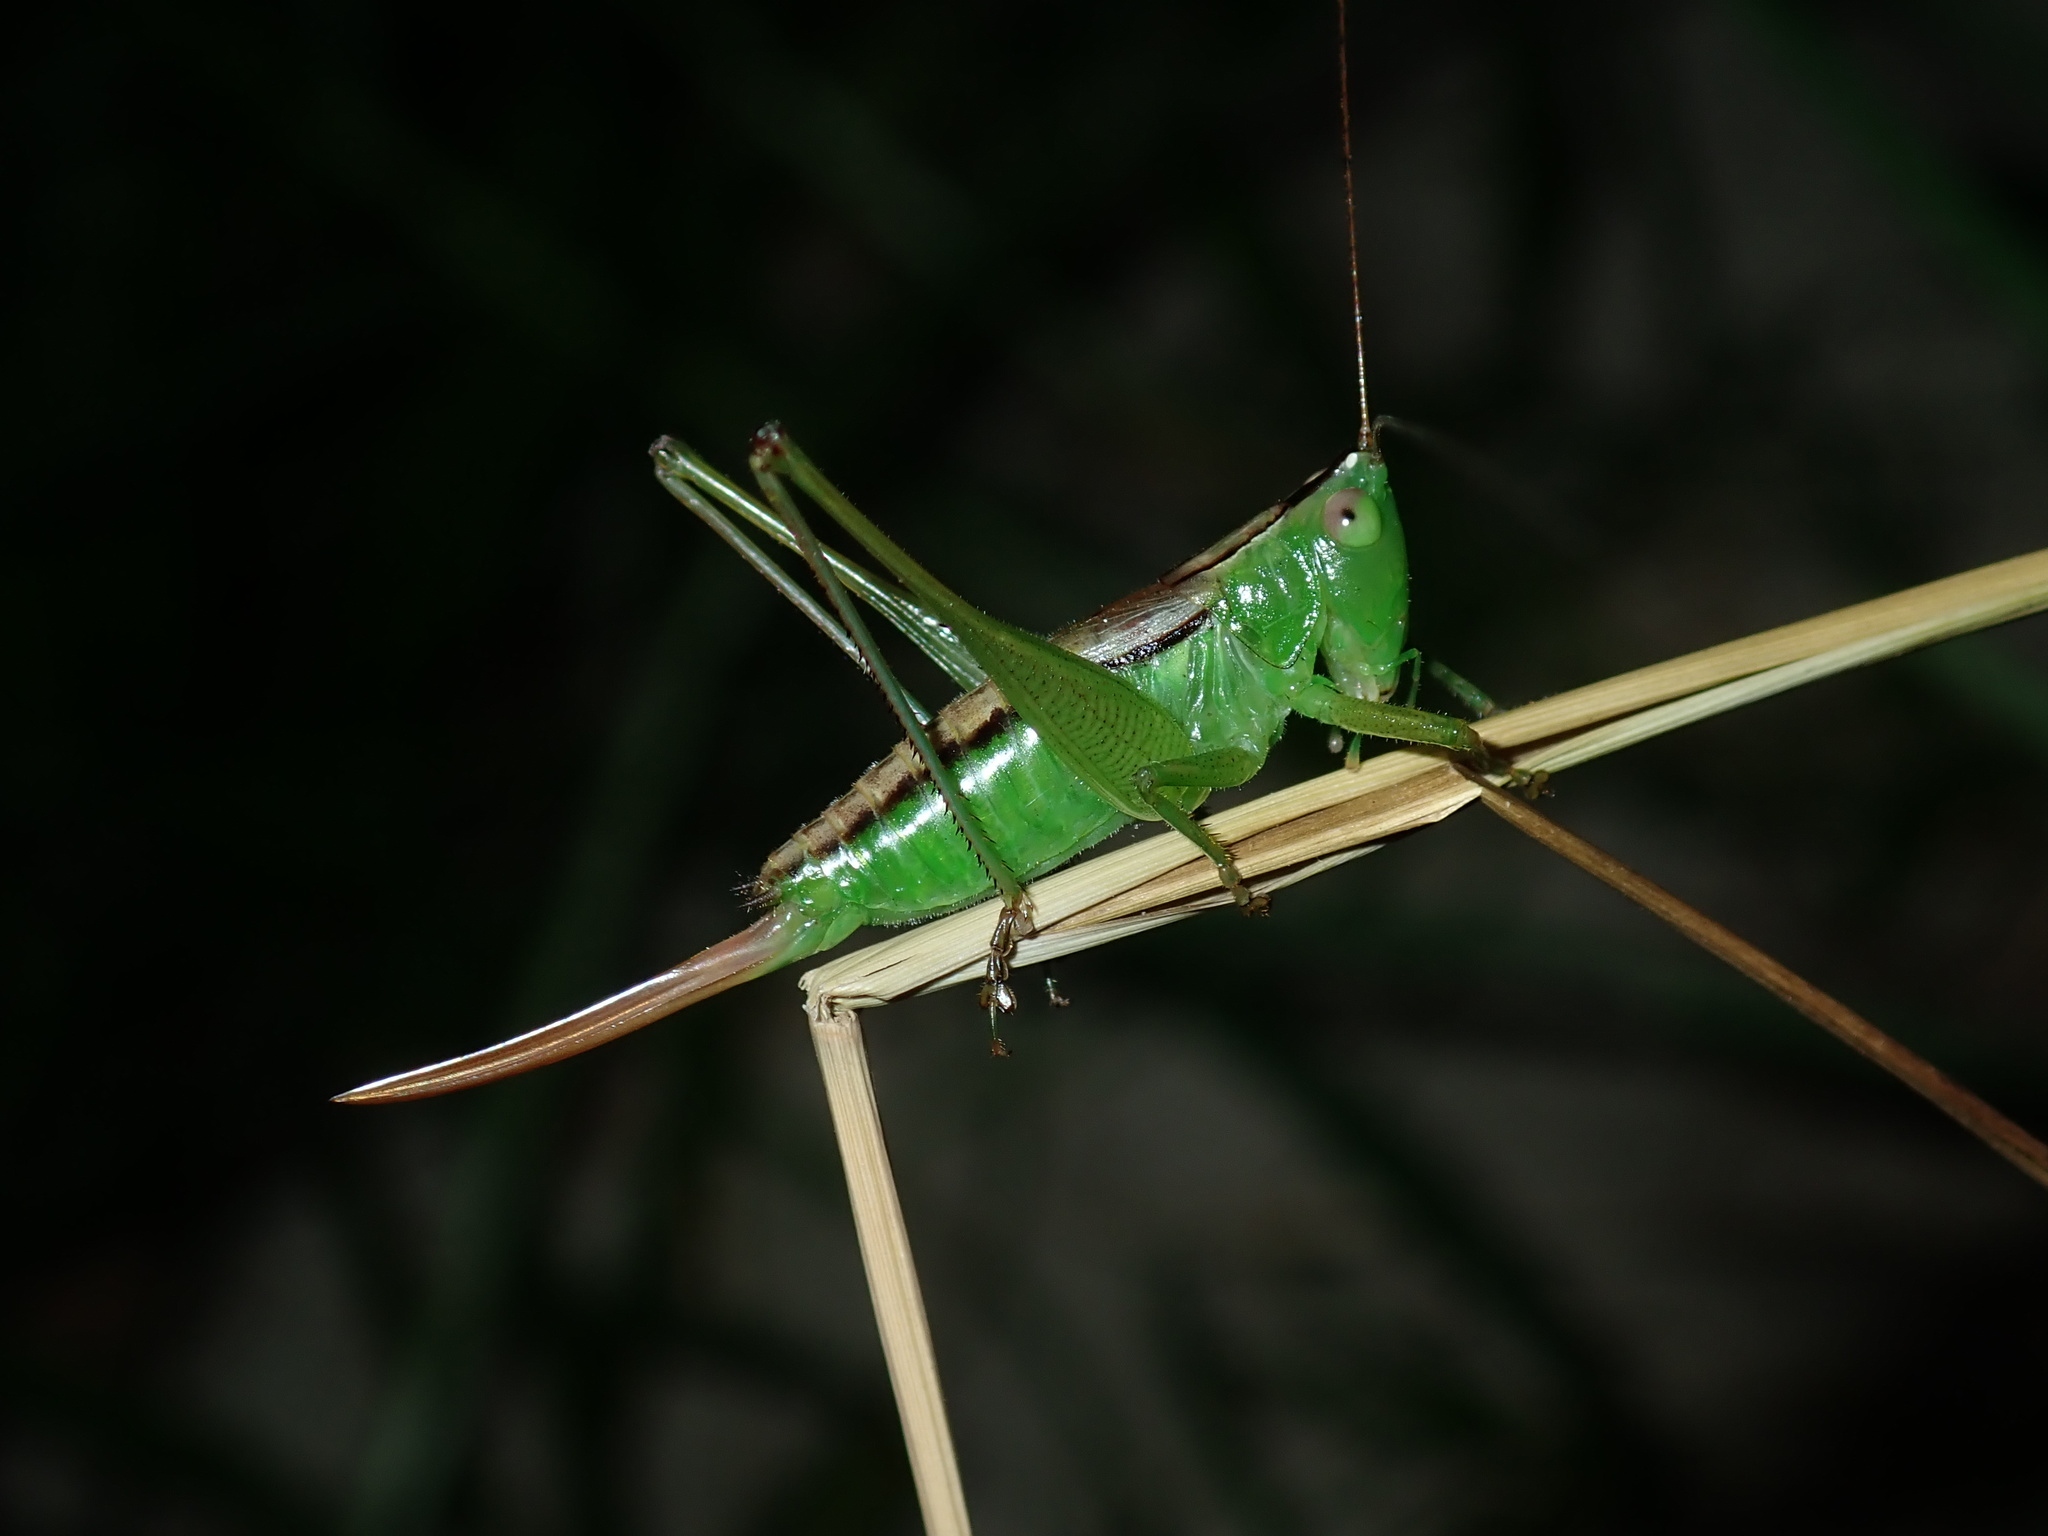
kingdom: Animalia
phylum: Arthropoda
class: Insecta
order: Orthoptera
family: Tettigoniidae
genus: Conocephalus
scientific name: Conocephalus semivittatus
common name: Blackish meadow katydid
